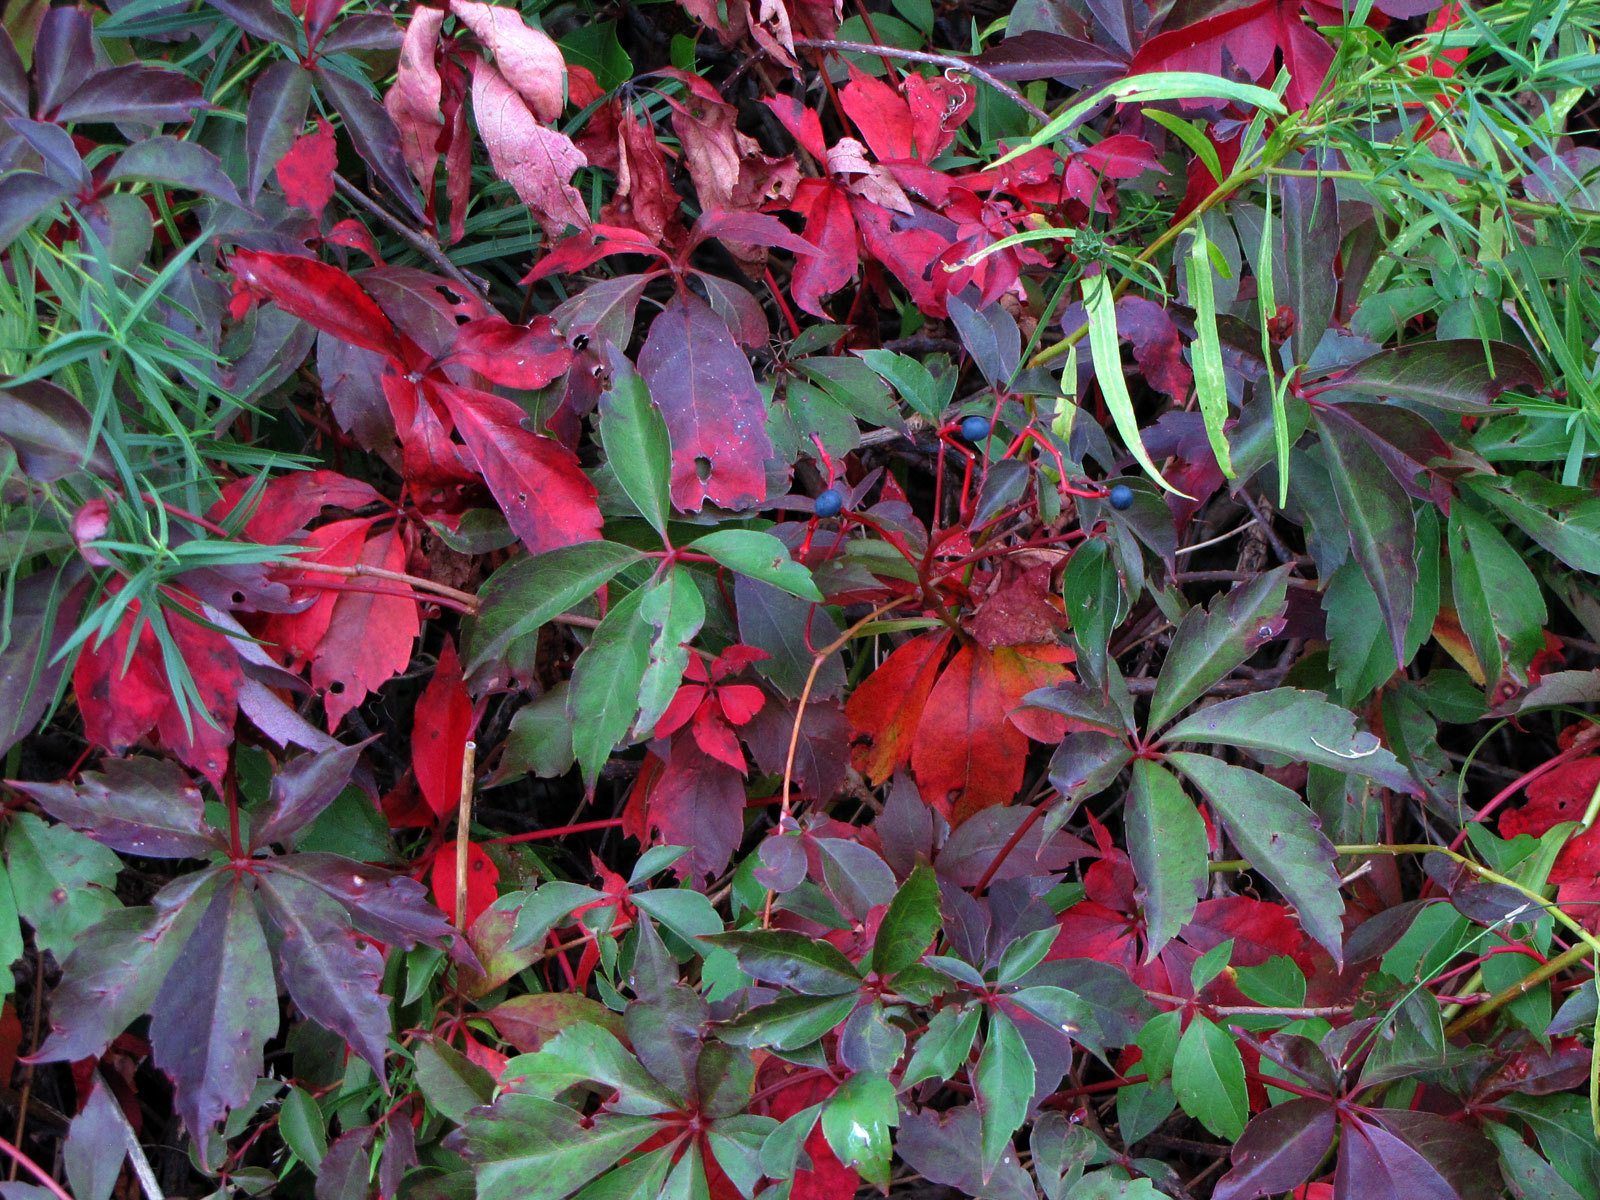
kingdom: Plantae
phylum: Tracheophyta
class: Magnoliopsida
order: Vitales
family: Vitaceae
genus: Parthenocissus
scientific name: Parthenocissus inserta
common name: False virginia-creeper
